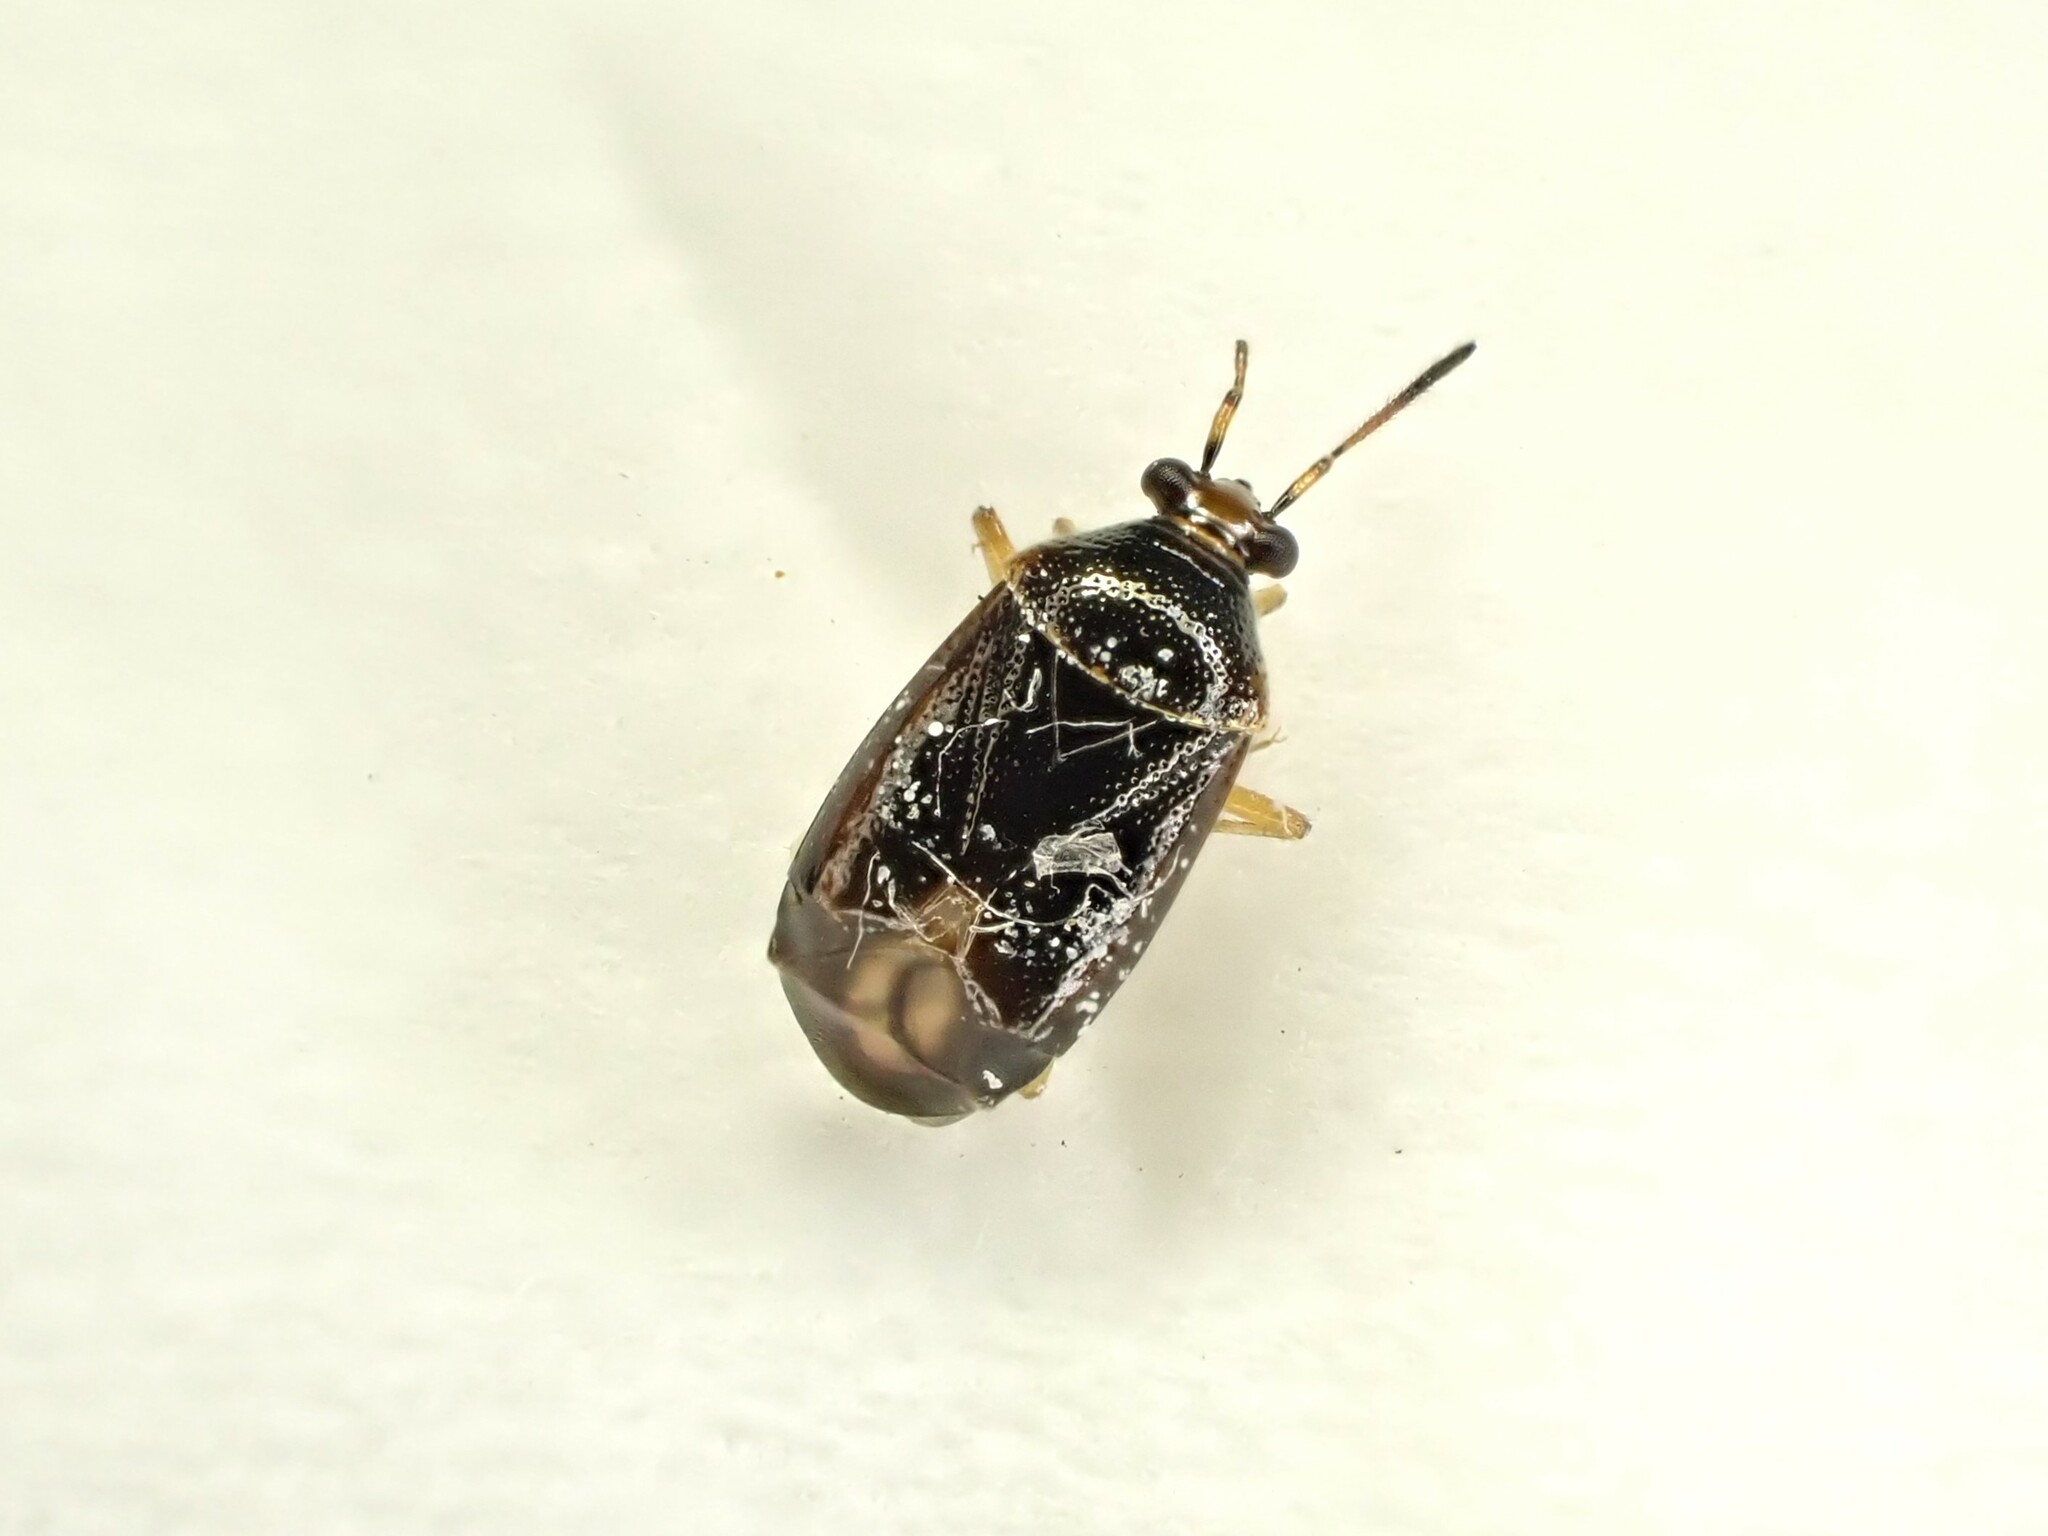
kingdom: Animalia
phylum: Arthropoda
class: Insecta
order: Hemiptera
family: Miridae
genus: Deraeocoris
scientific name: Deraeocoris maoricus
